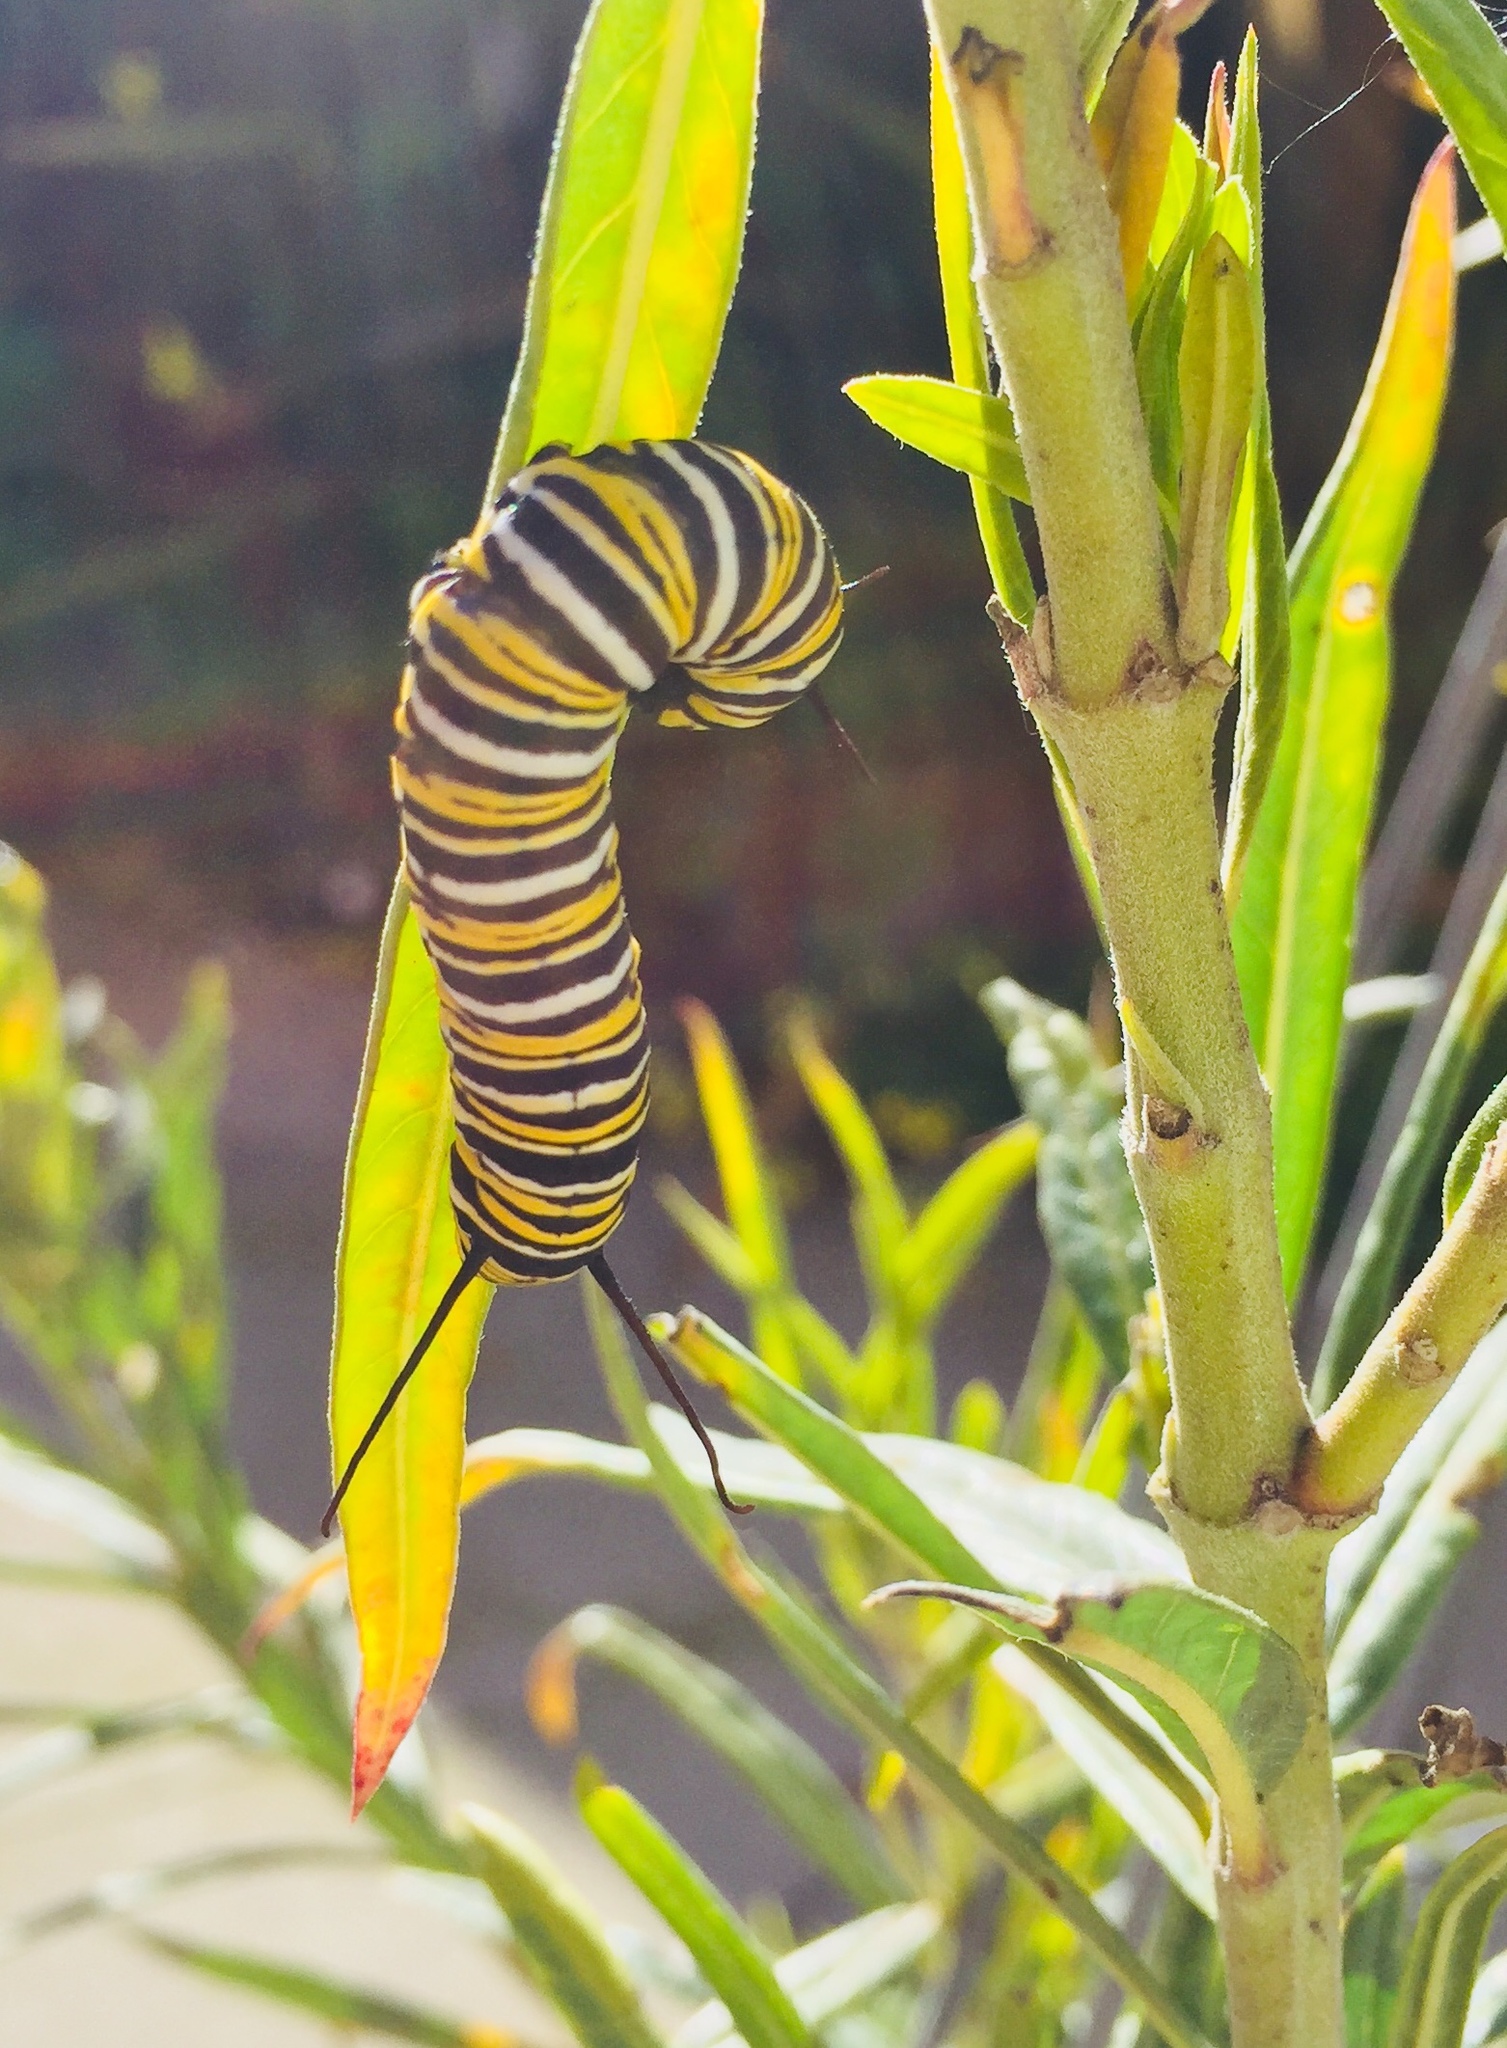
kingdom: Animalia
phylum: Arthropoda
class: Insecta
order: Lepidoptera
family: Nymphalidae
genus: Danaus
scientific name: Danaus plexippus
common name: Monarch
